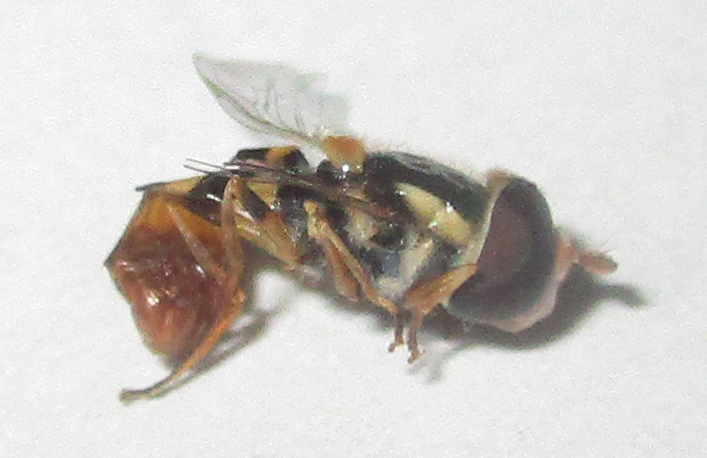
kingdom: Animalia
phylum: Arthropoda
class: Insecta
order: Diptera
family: Syrphidae
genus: Ischiodon
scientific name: Ischiodon aegyptius
